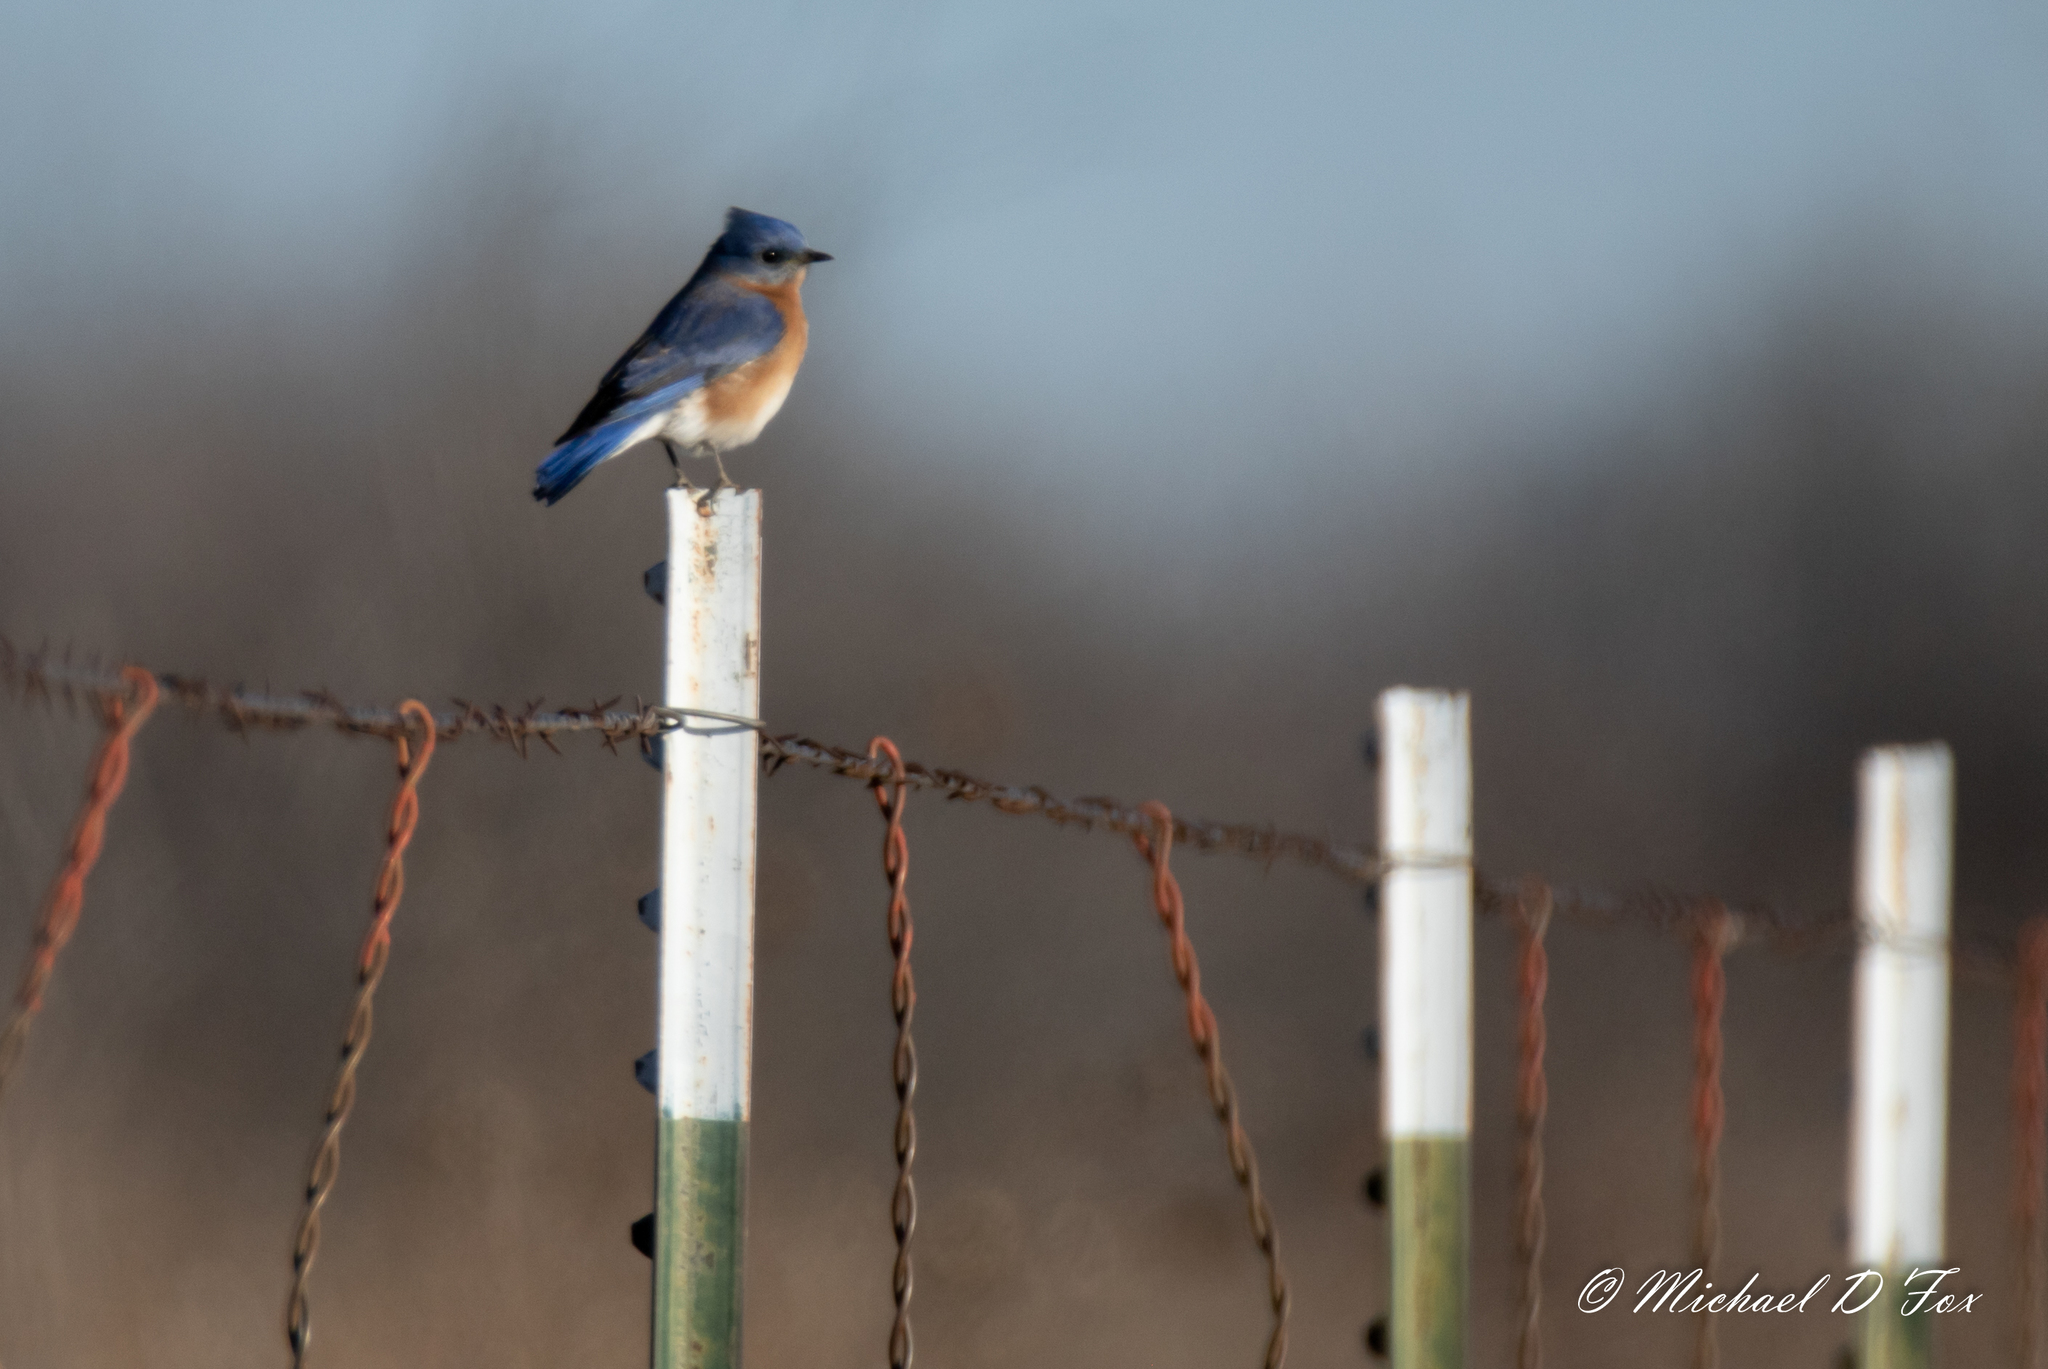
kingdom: Animalia
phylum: Chordata
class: Aves
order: Passeriformes
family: Turdidae
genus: Sialia
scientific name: Sialia sialis
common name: Eastern bluebird
